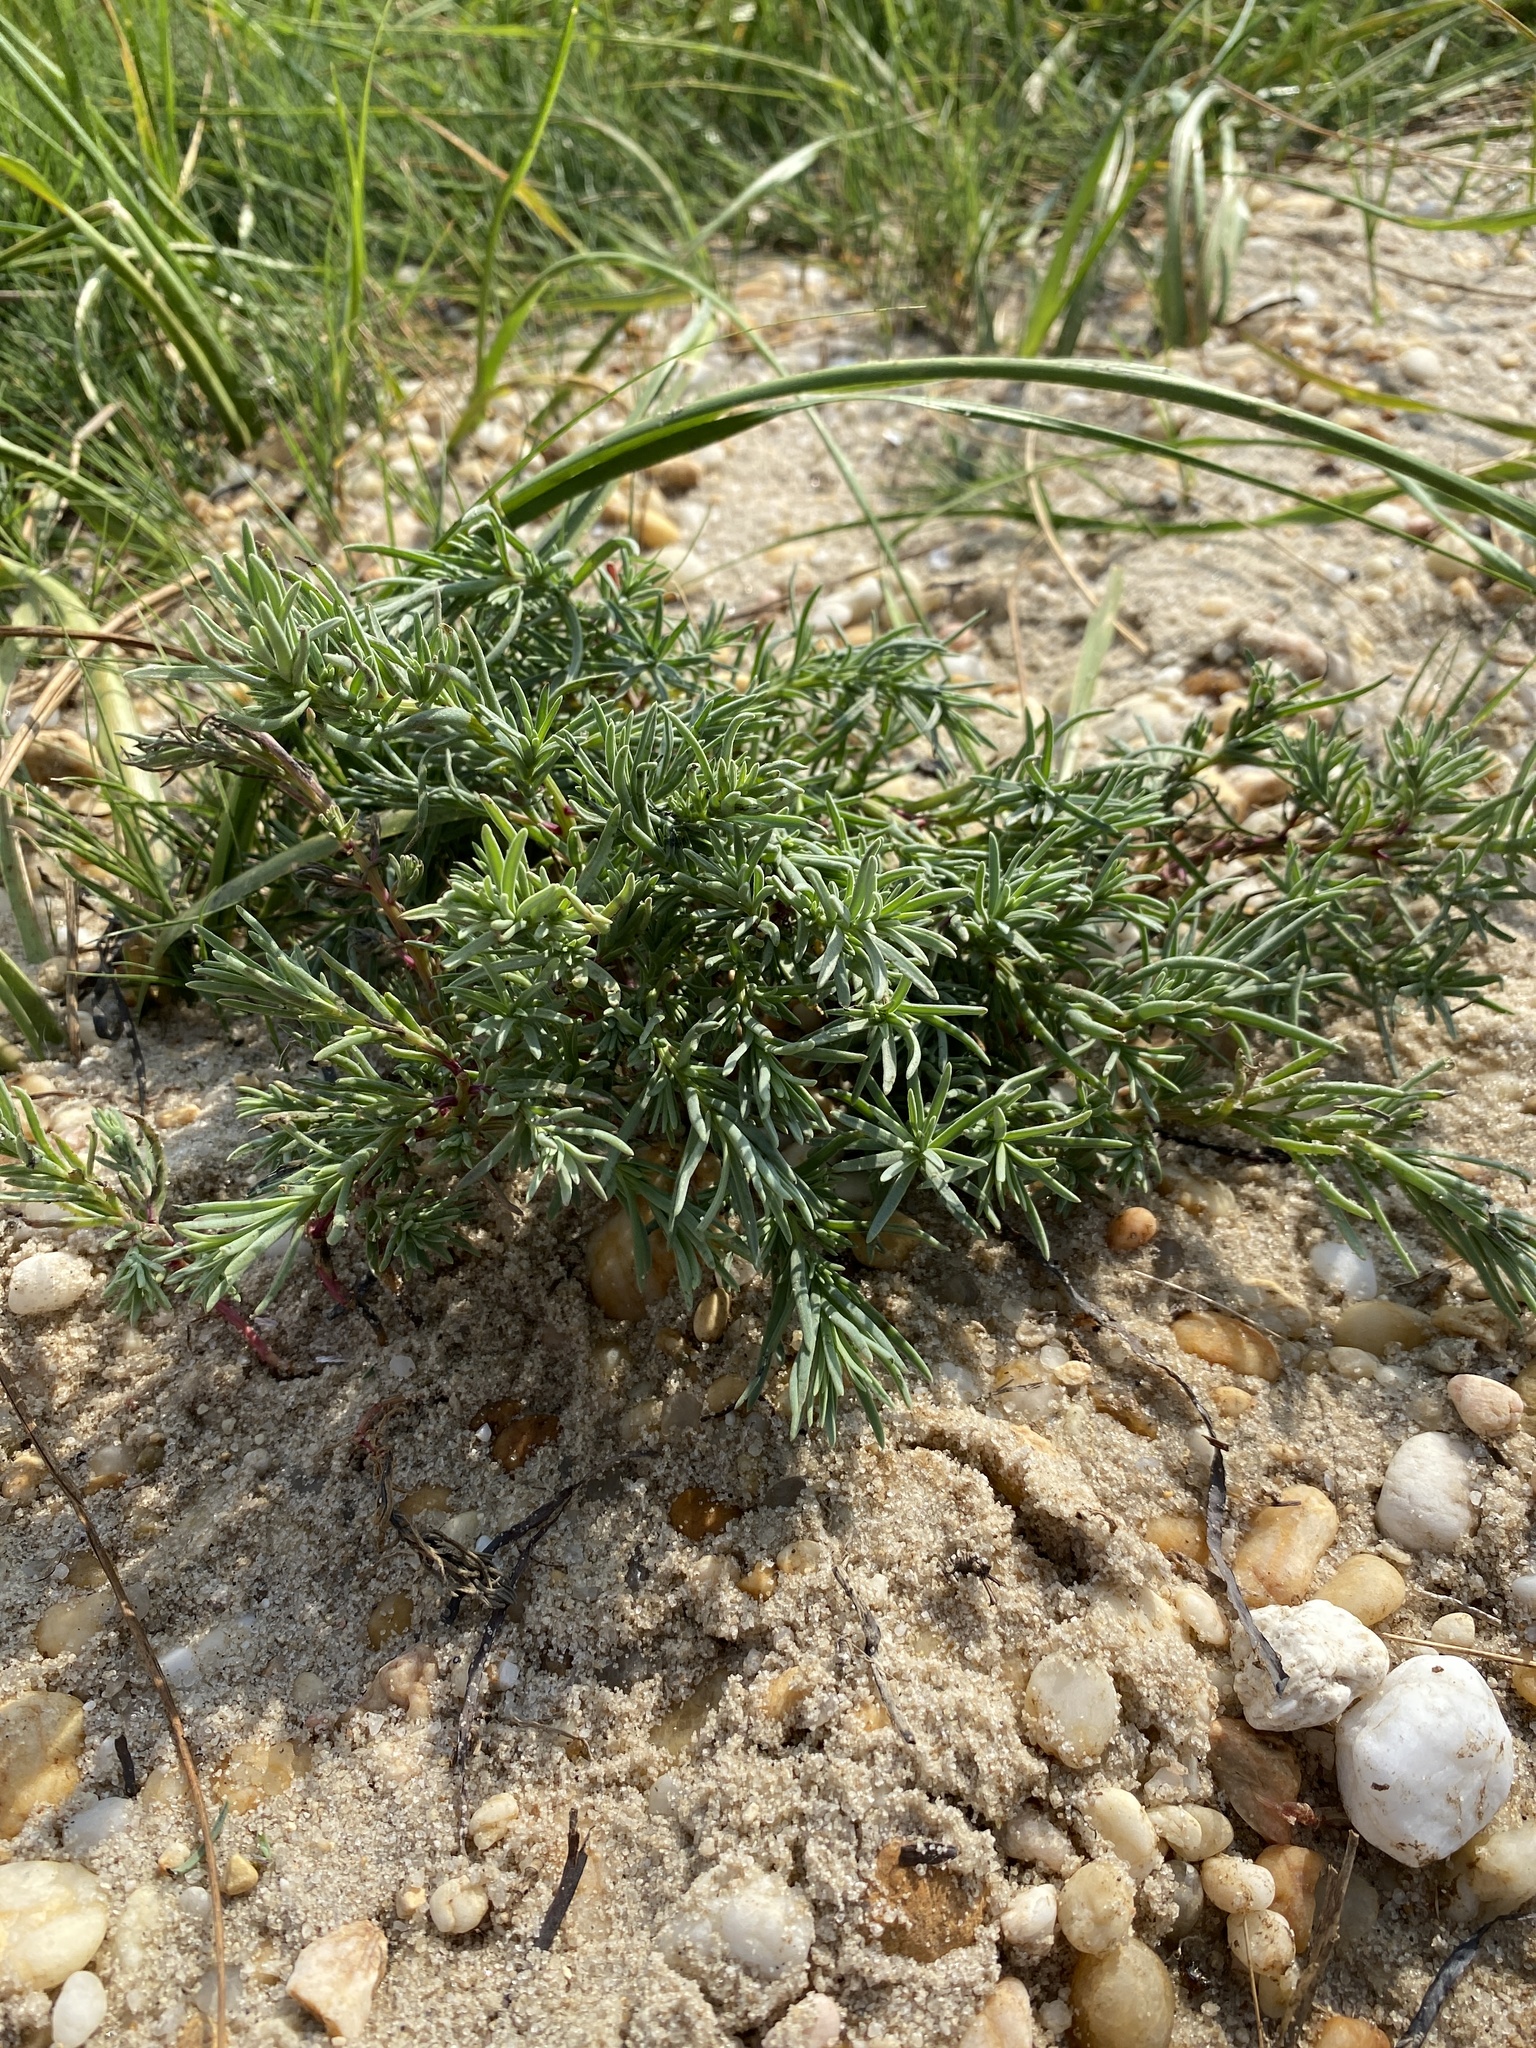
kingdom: Plantae
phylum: Tracheophyta
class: Magnoliopsida
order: Caryophyllales
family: Amaranthaceae
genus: Suaeda
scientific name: Suaeda maritima
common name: Annual sea-blite
